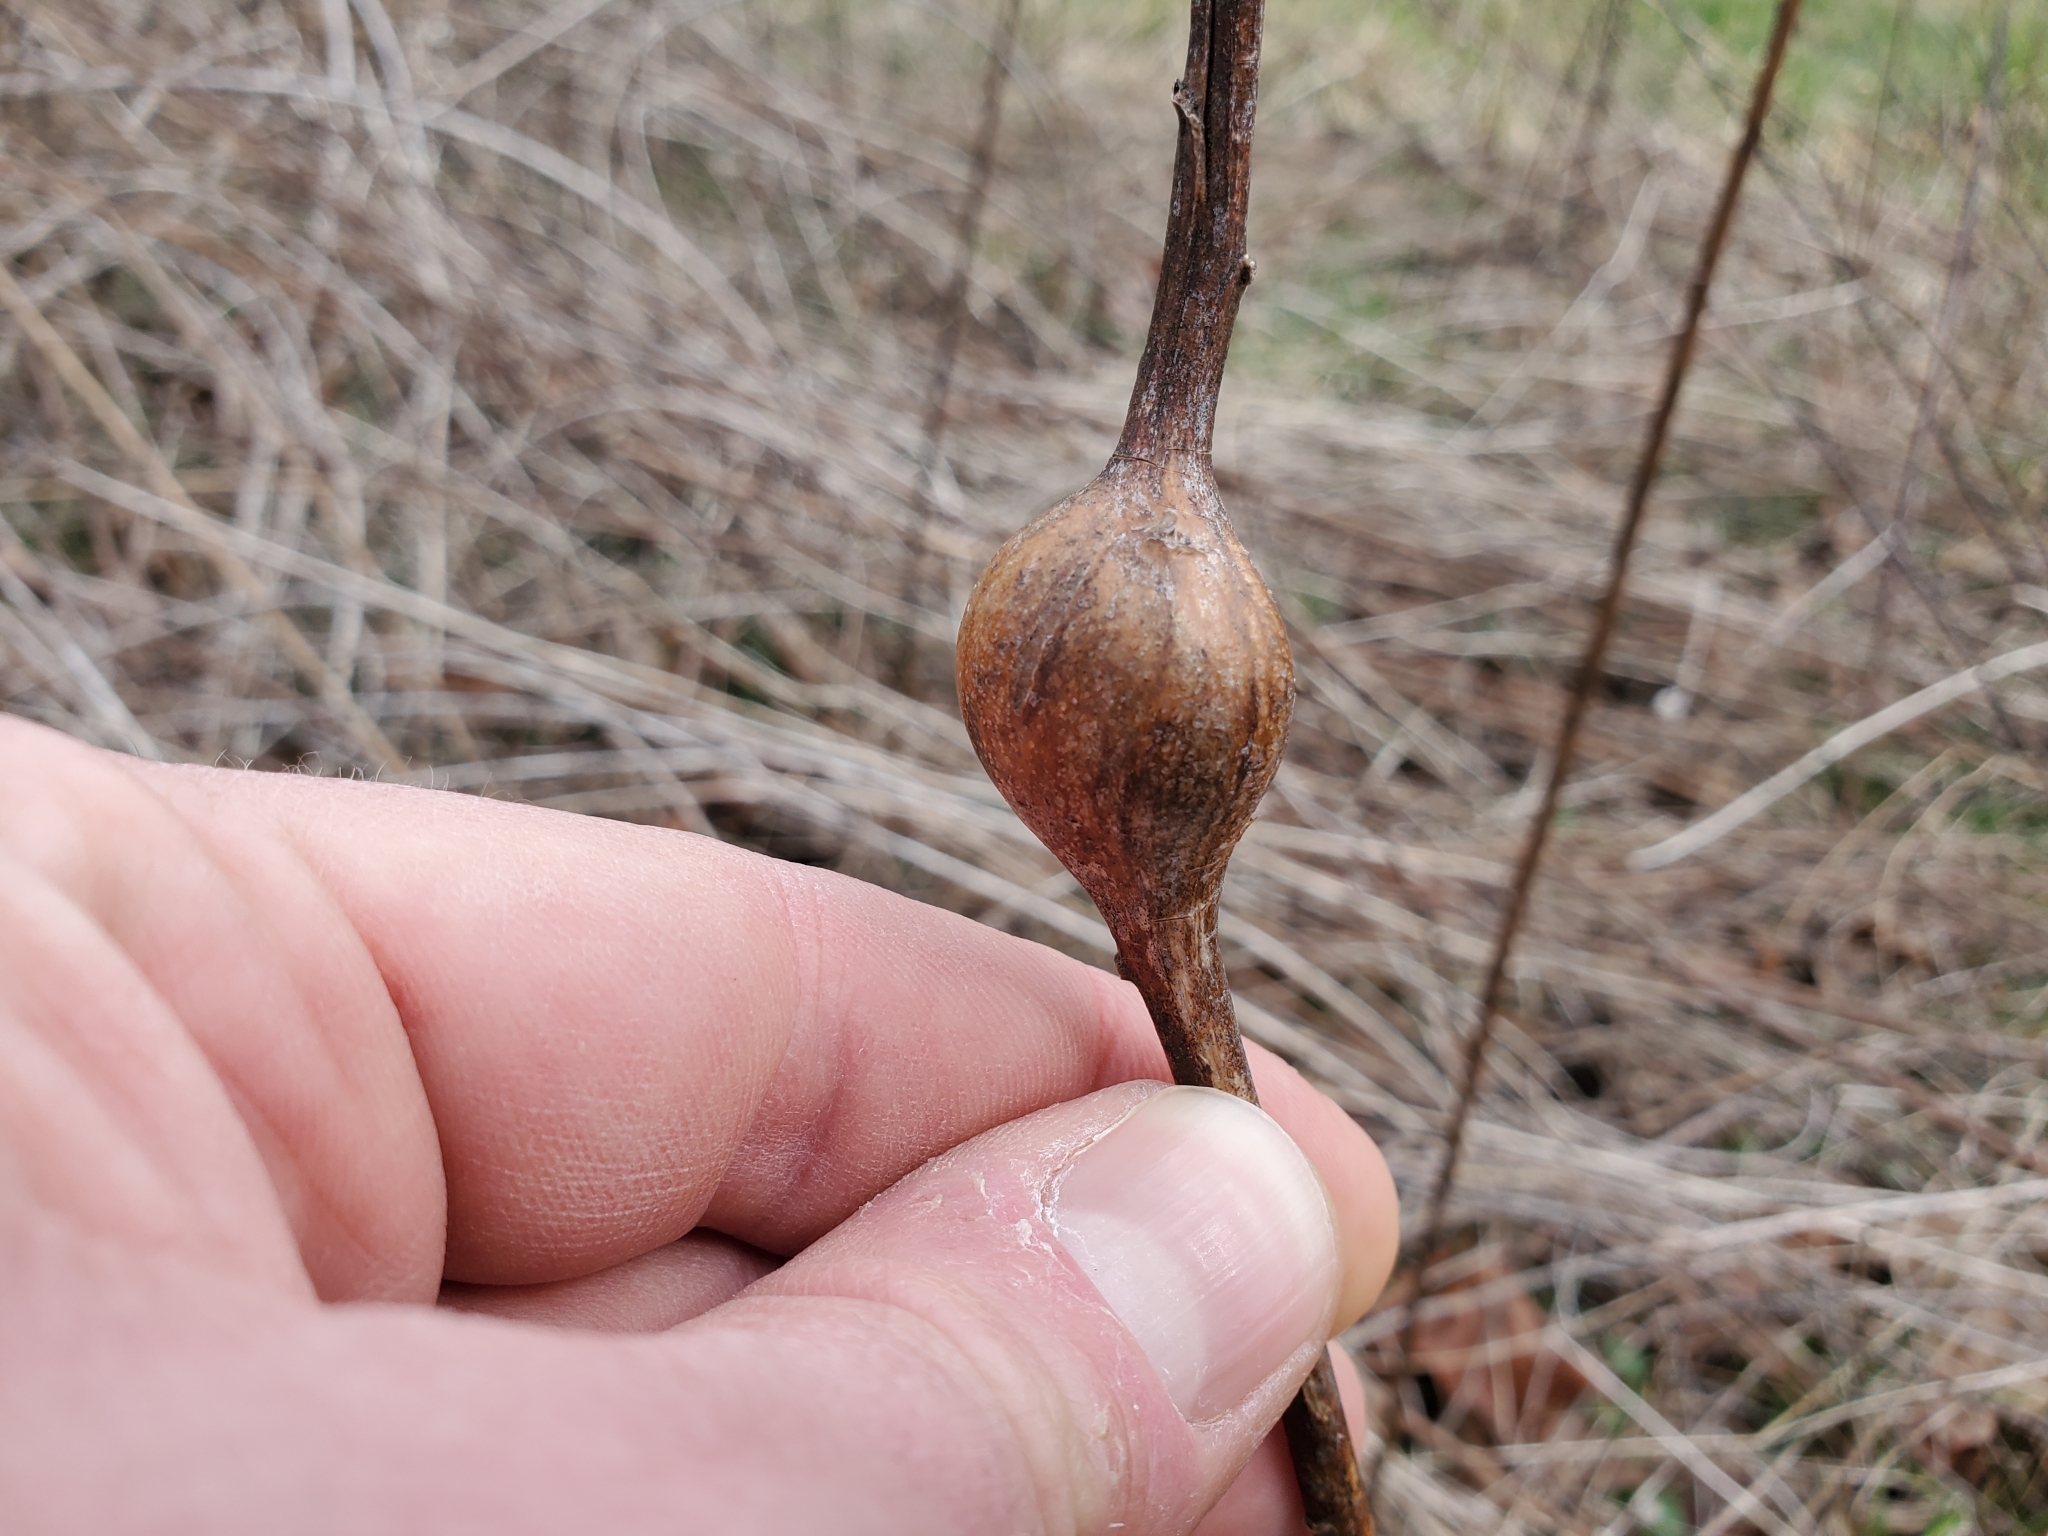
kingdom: Animalia
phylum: Arthropoda
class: Insecta
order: Diptera
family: Tephritidae
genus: Eurosta
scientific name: Eurosta solidaginis
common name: Goldenrod gall fly
